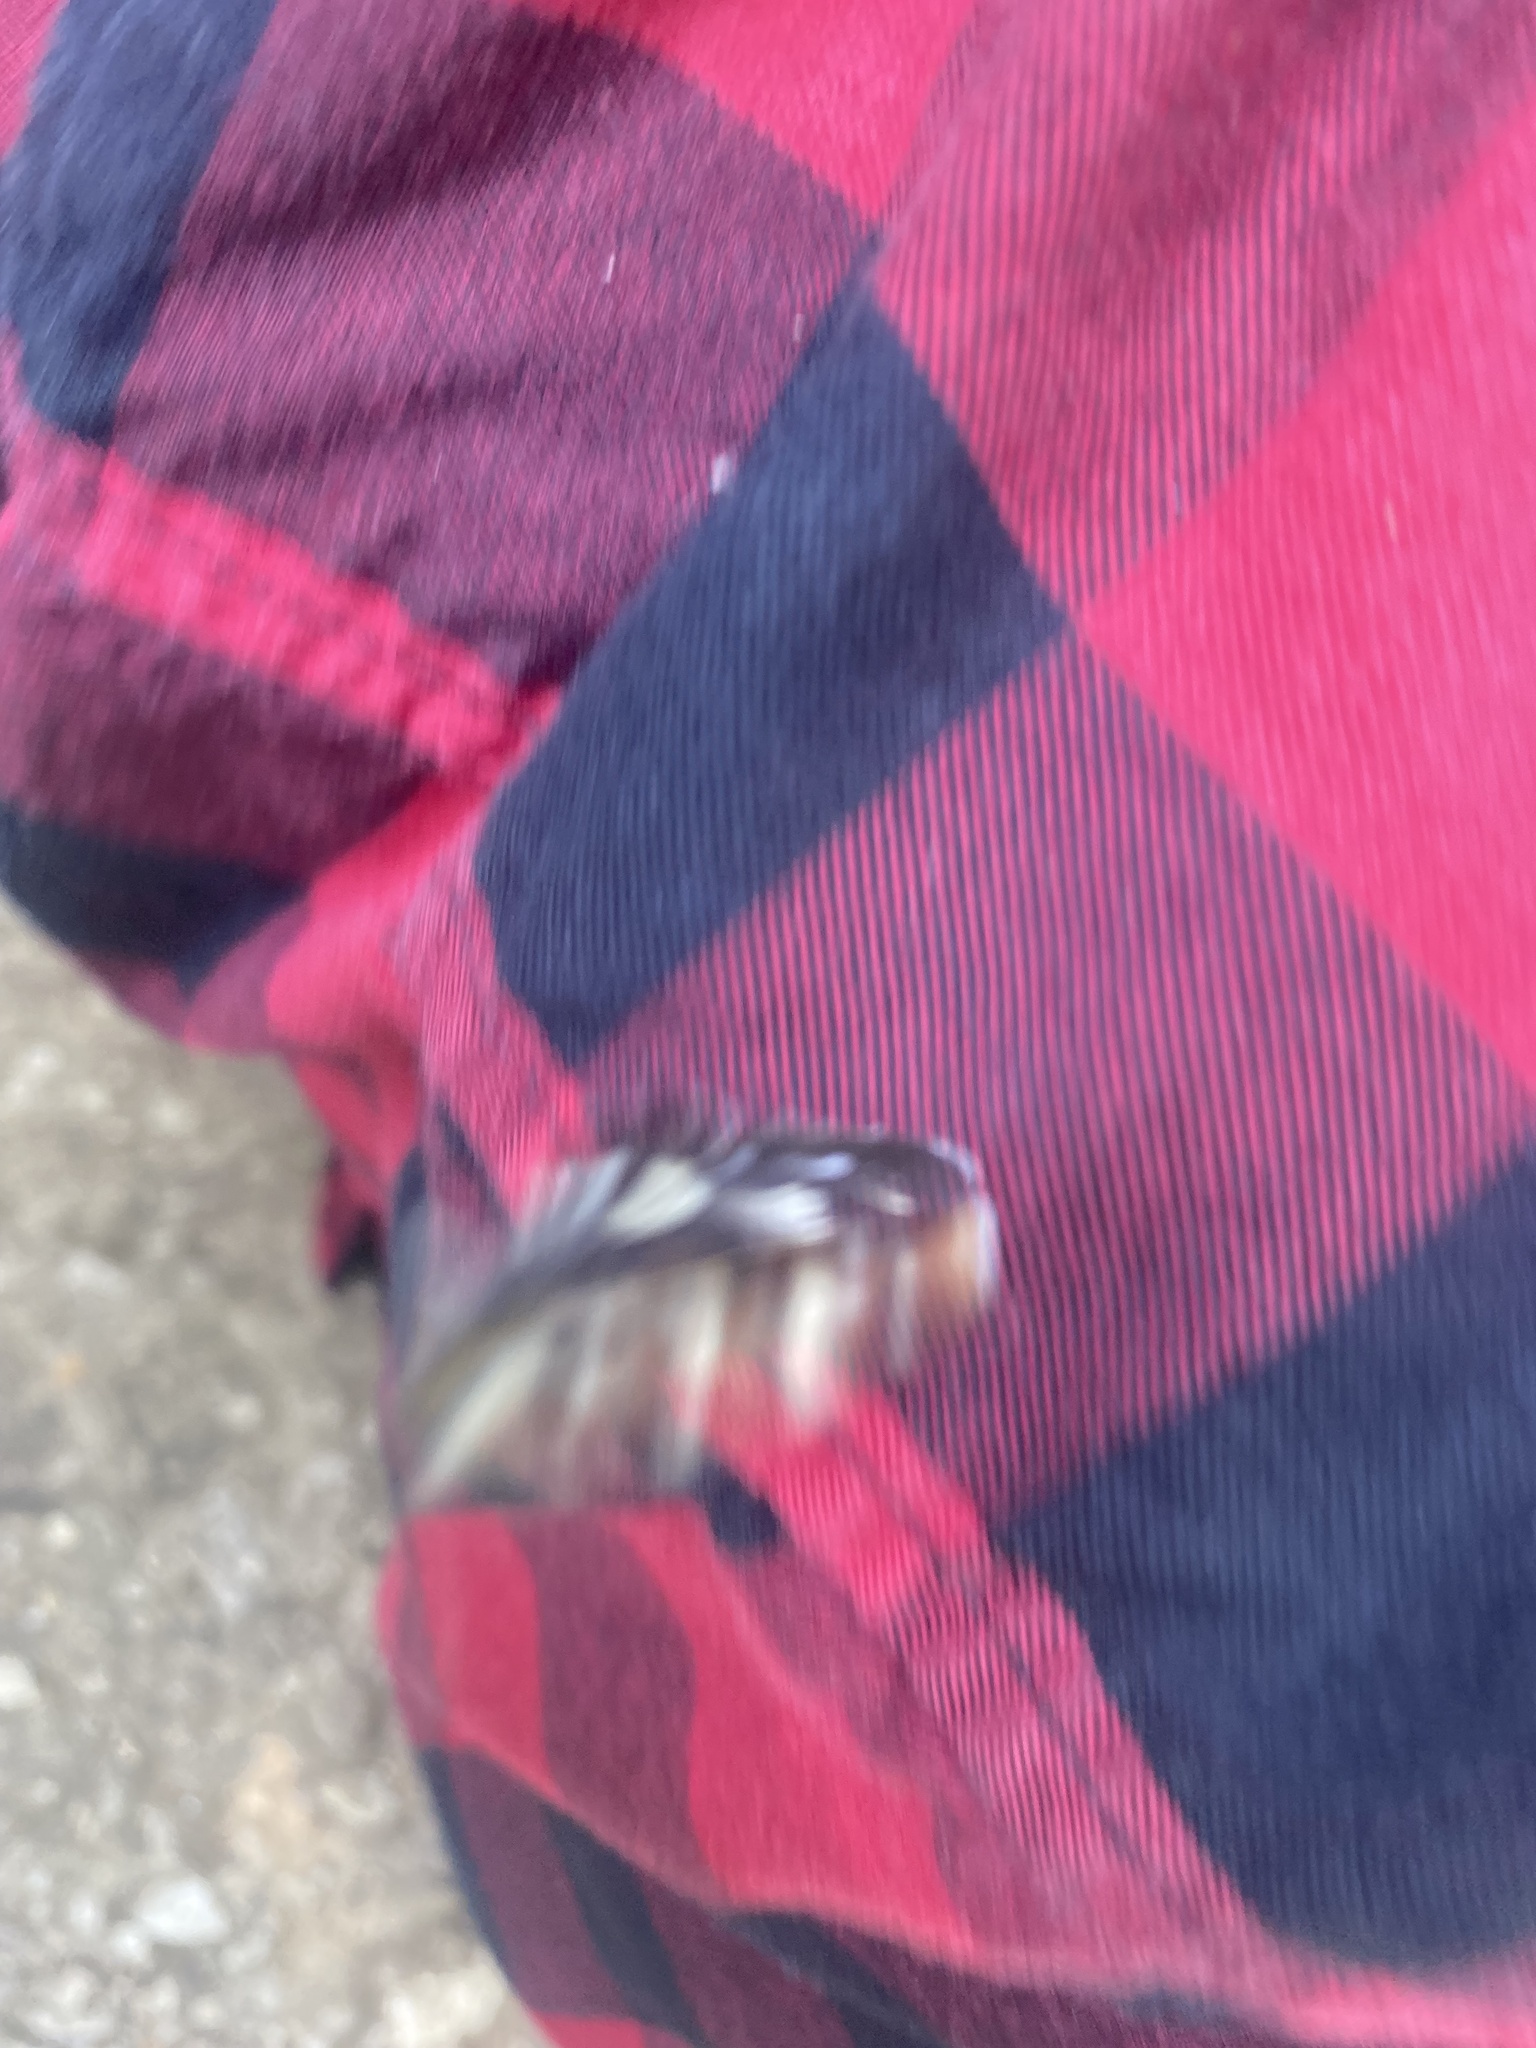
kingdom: Animalia
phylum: Arthropoda
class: Insecta
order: Lepidoptera
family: Nymphalidae
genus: Araschnia
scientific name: Araschnia levana
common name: Map butterfly
